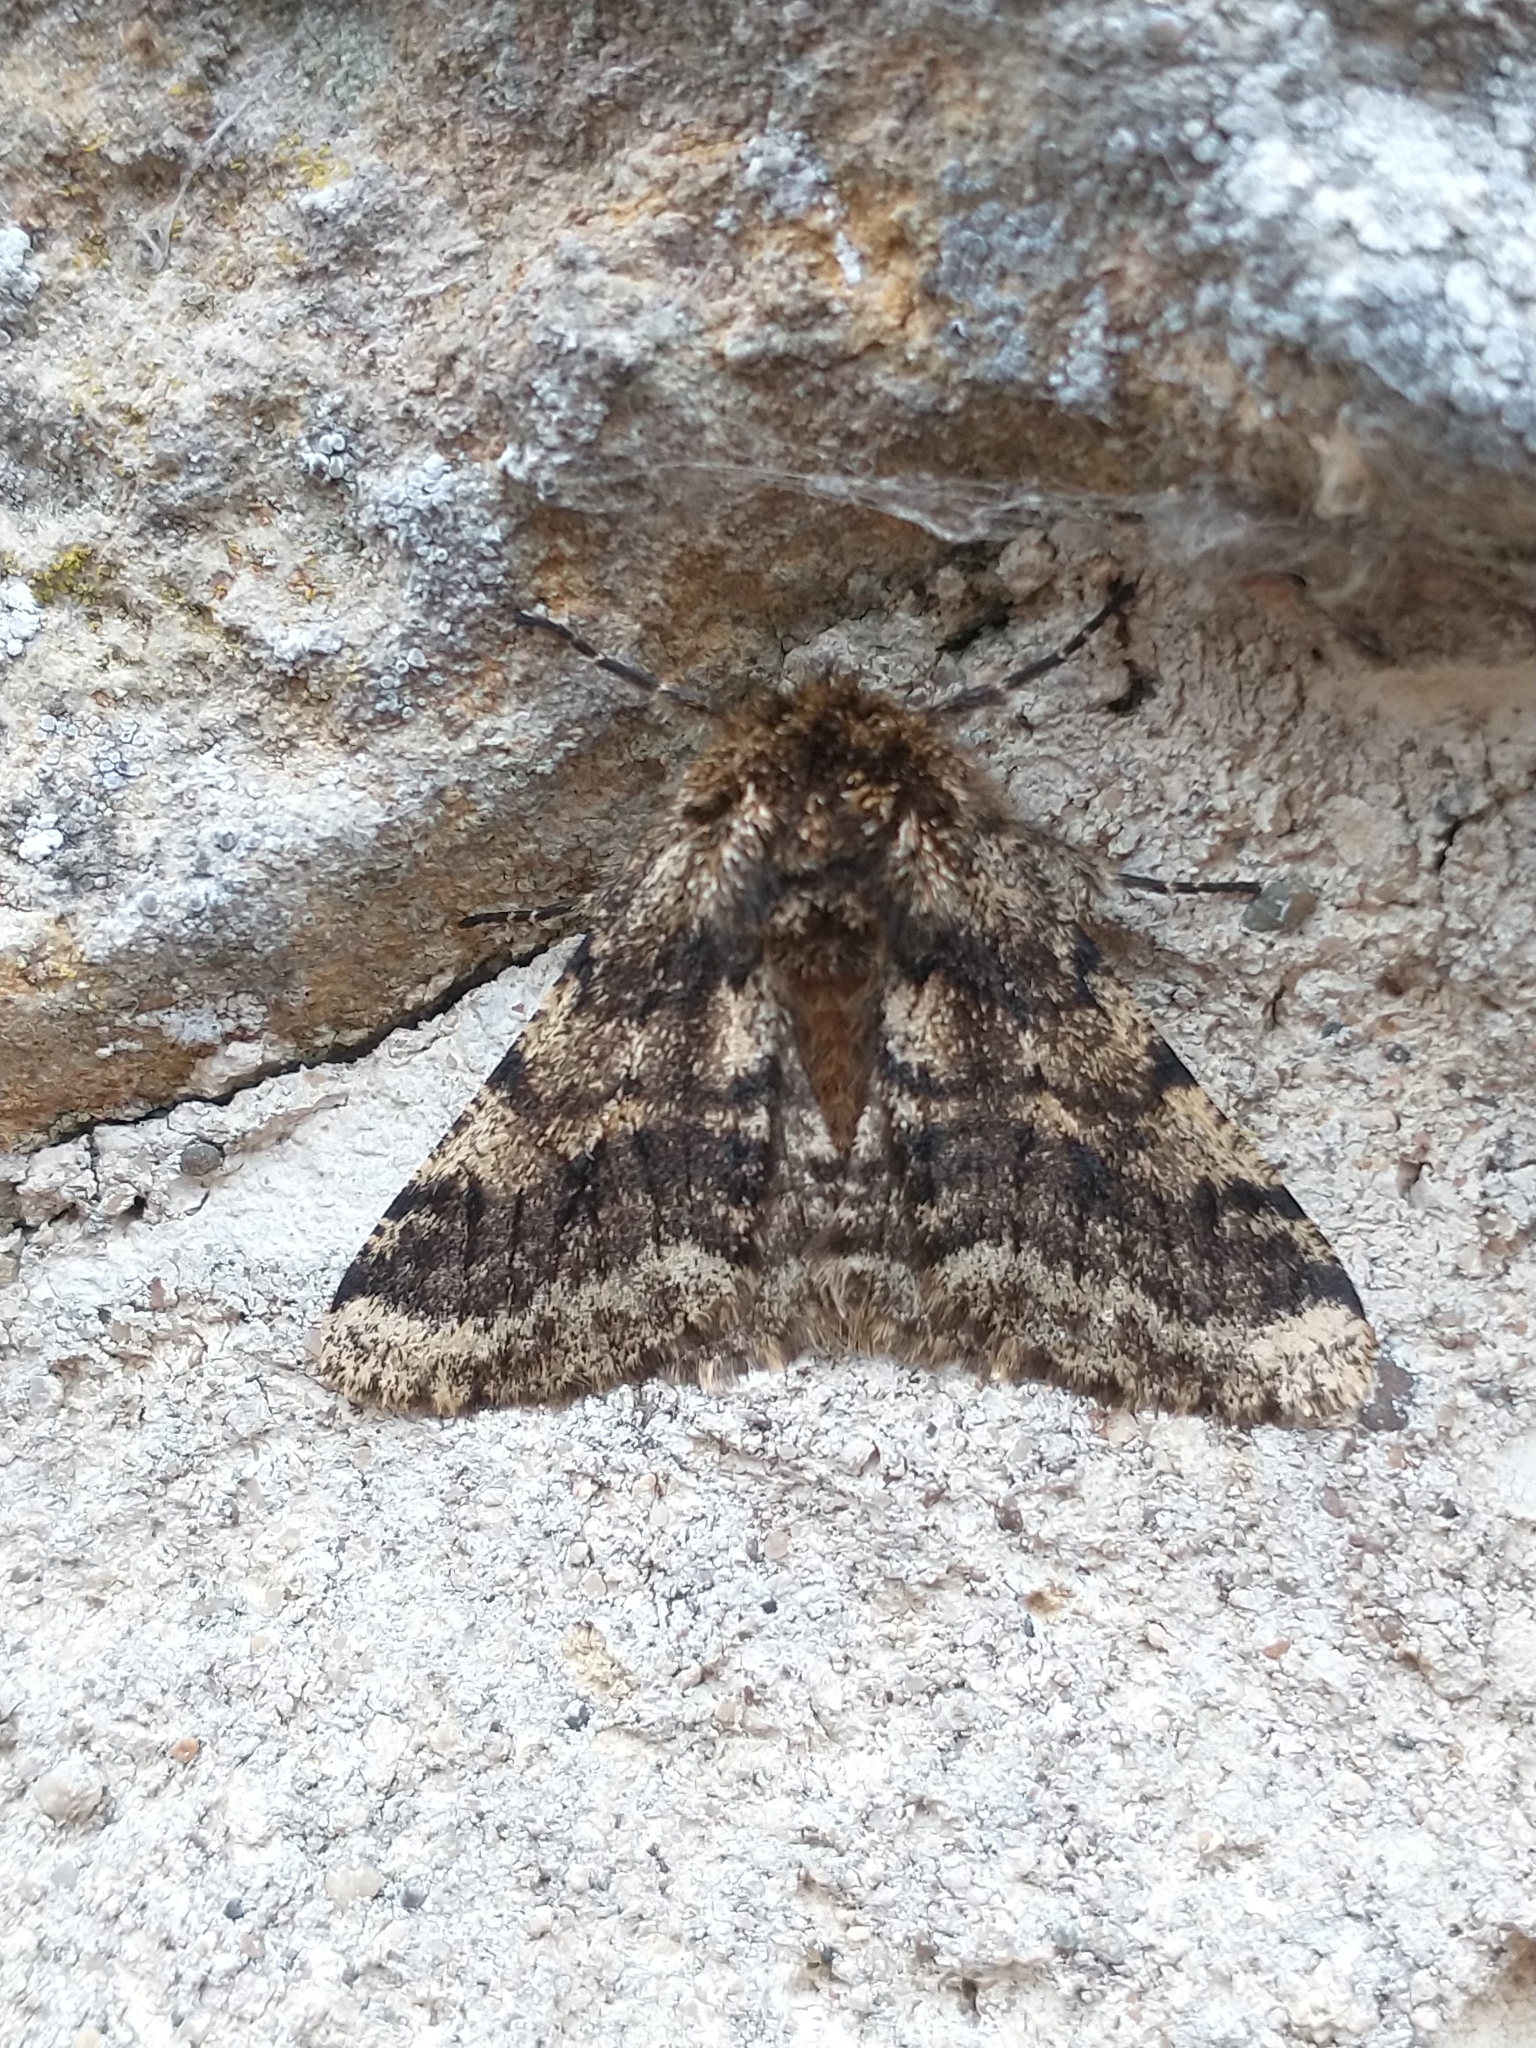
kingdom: Animalia
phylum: Arthropoda
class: Insecta
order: Lepidoptera
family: Geometridae
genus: Lycia
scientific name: Lycia hirtaria
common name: Brindled beauty
